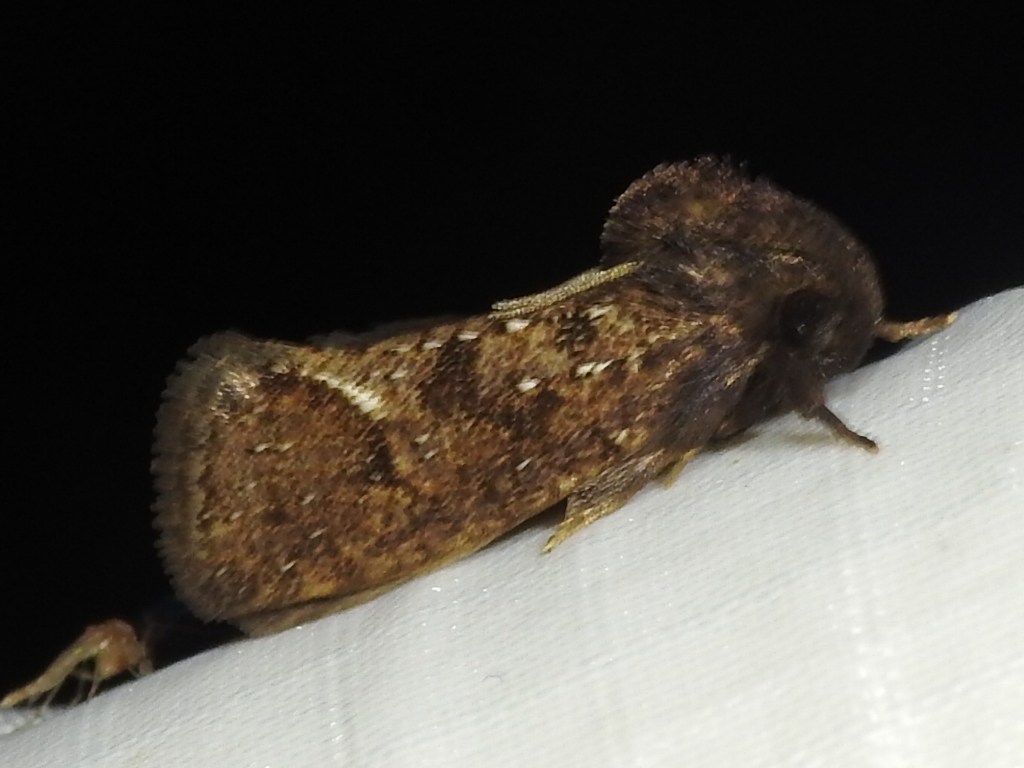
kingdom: Animalia
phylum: Arthropoda
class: Insecta
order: Lepidoptera
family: Tineidae
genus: Acrolophus
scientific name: Acrolophus texanella
